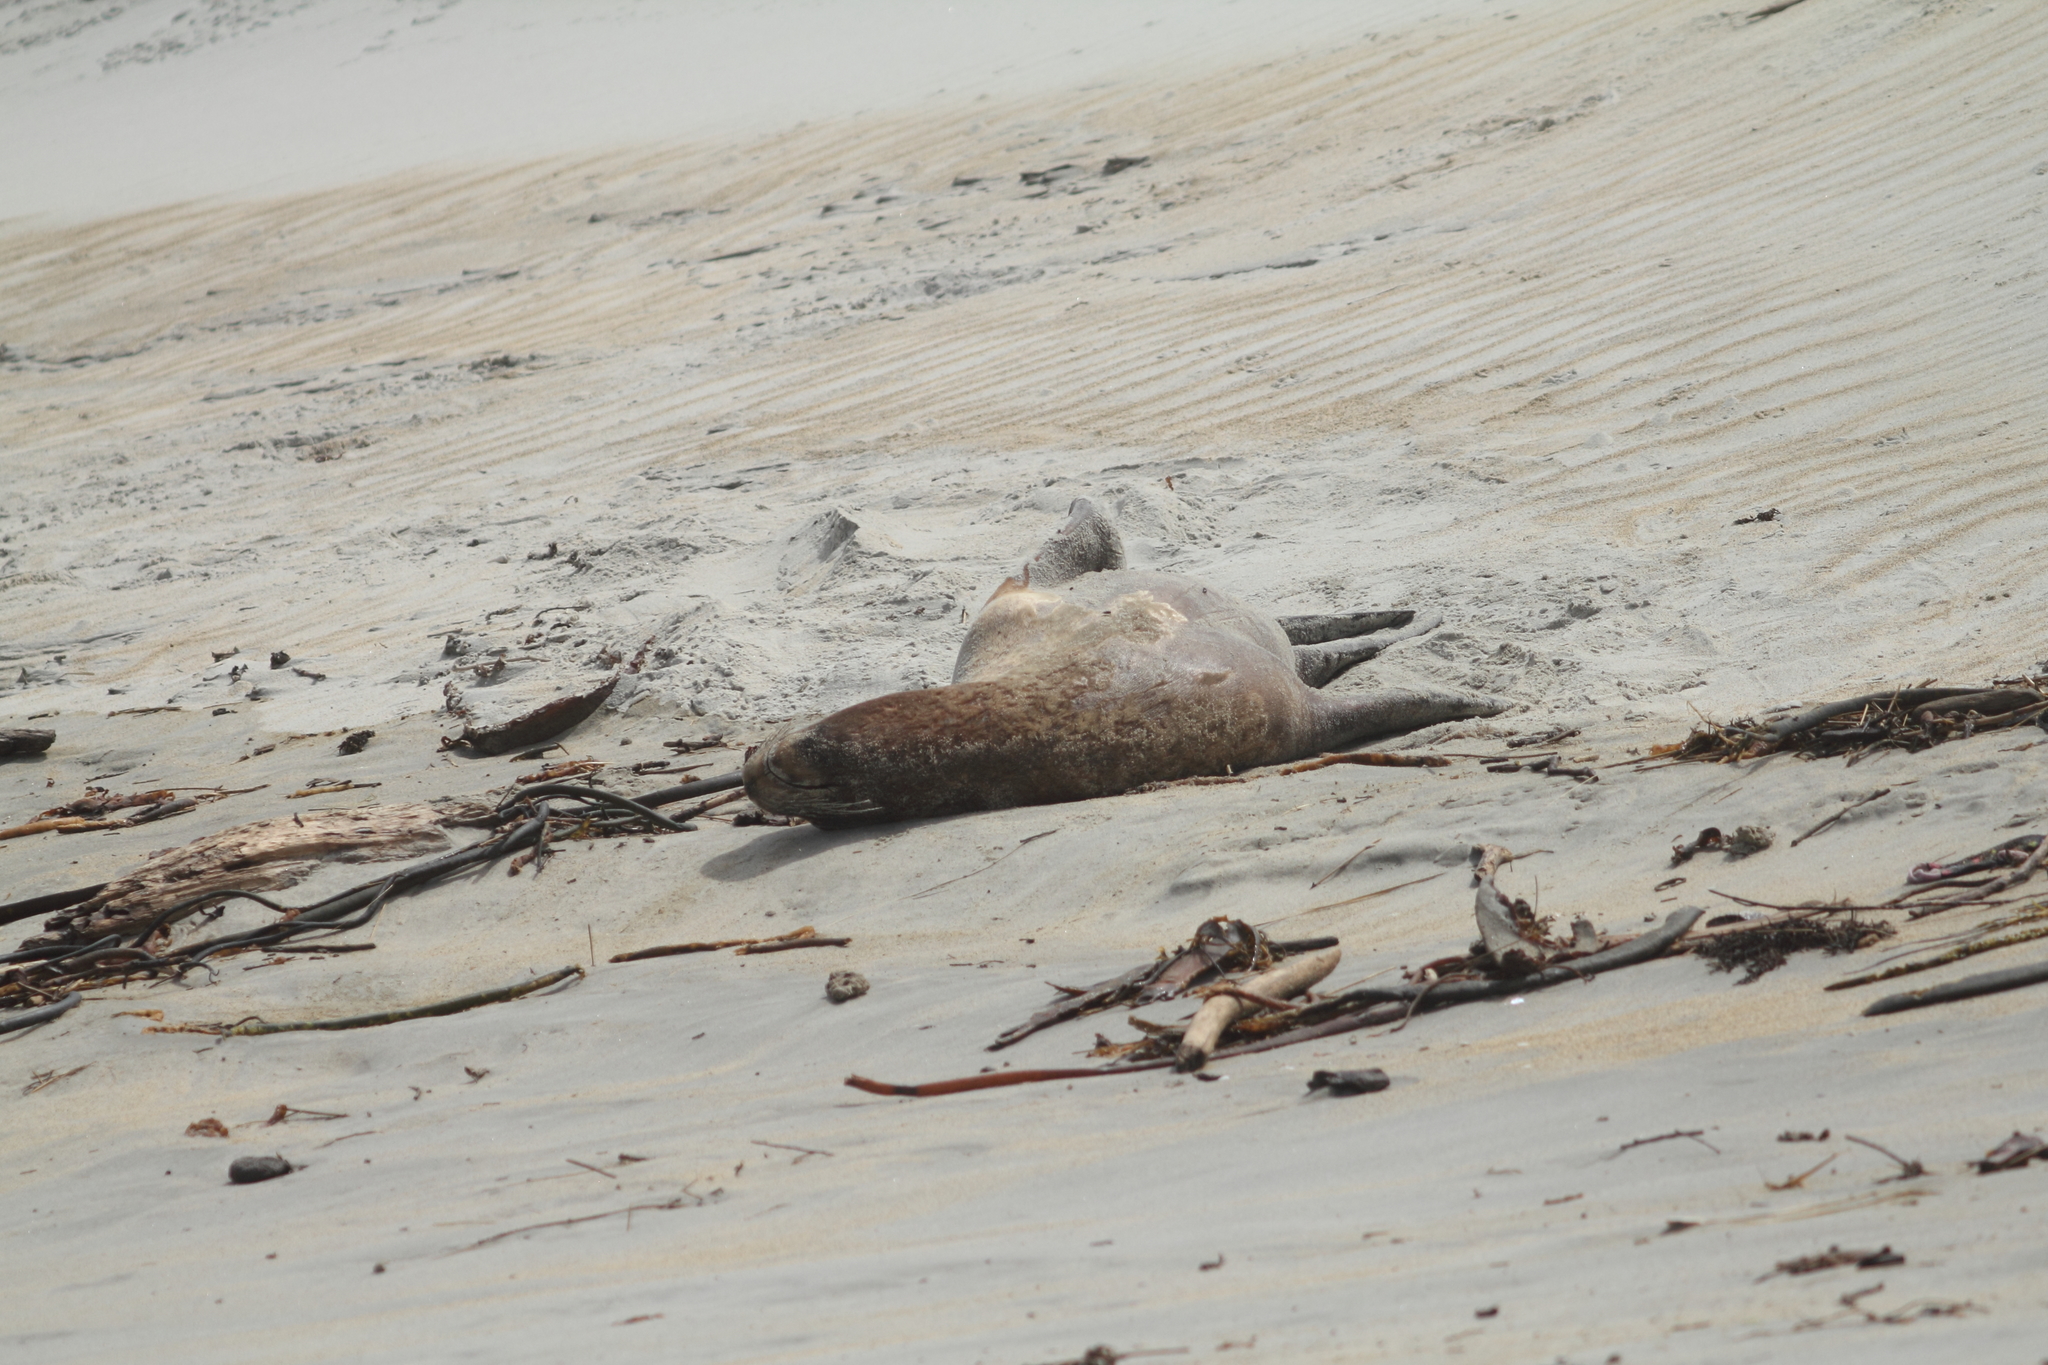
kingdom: Animalia
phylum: Chordata
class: Mammalia
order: Carnivora
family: Otariidae
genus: Phocarctos
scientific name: Phocarctos hookeri
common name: New zealand sea lion
